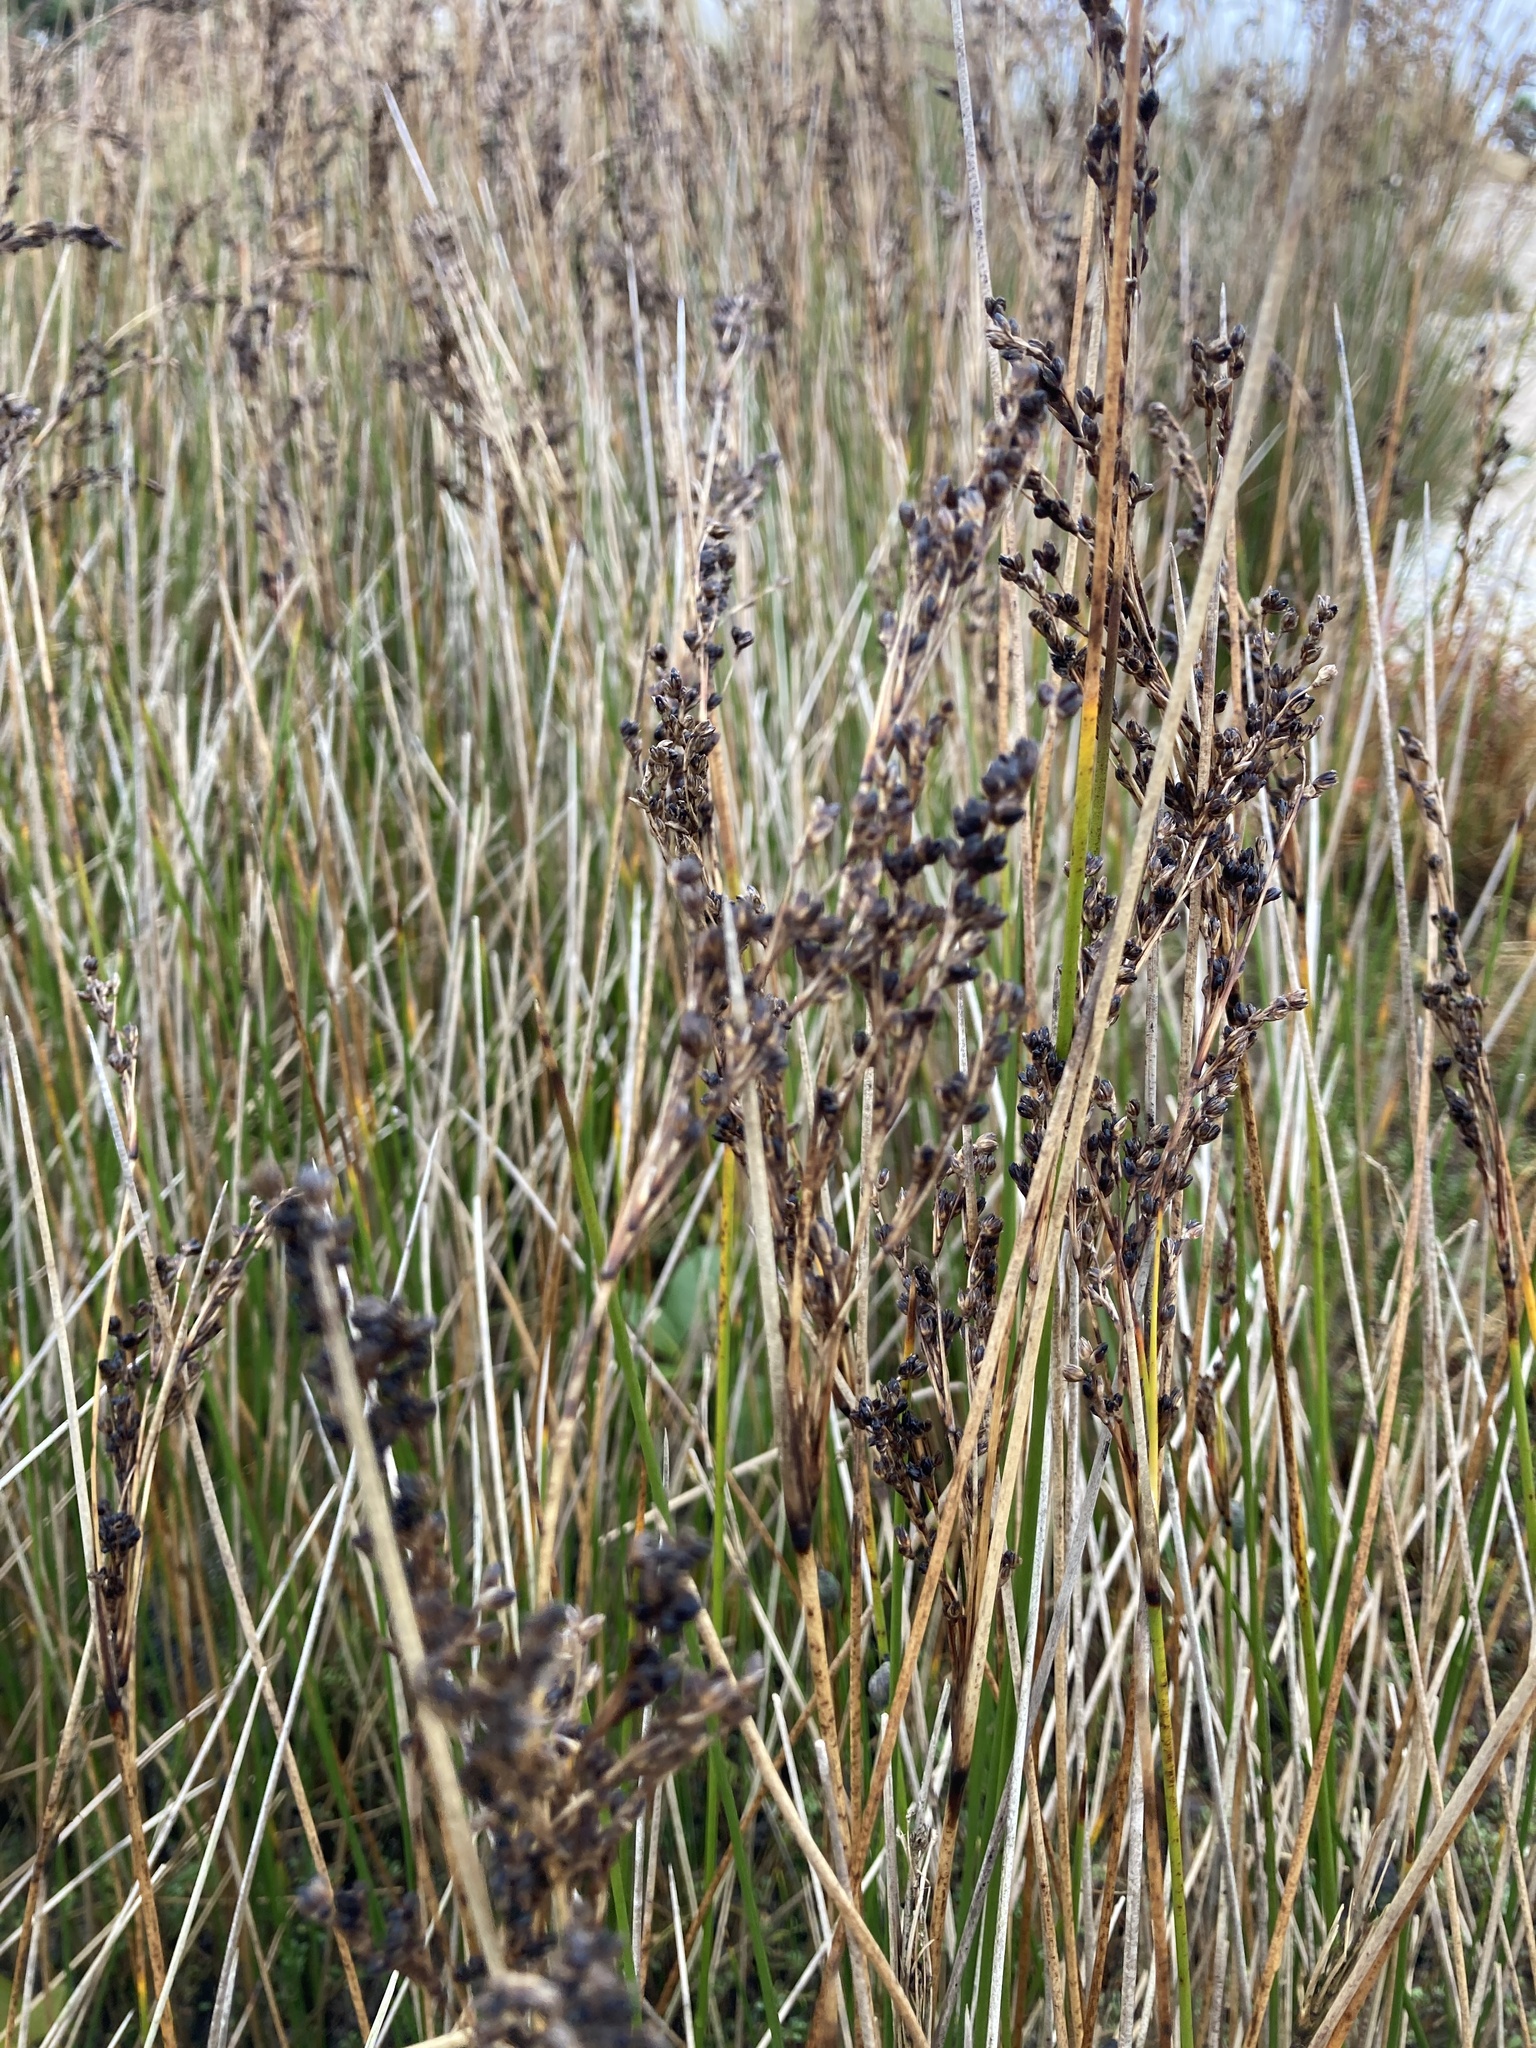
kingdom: Plantae
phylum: Tracheophyta
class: Liliopsida
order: Poales
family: Juncaceae
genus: Juncus
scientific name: Juncus kraussii
